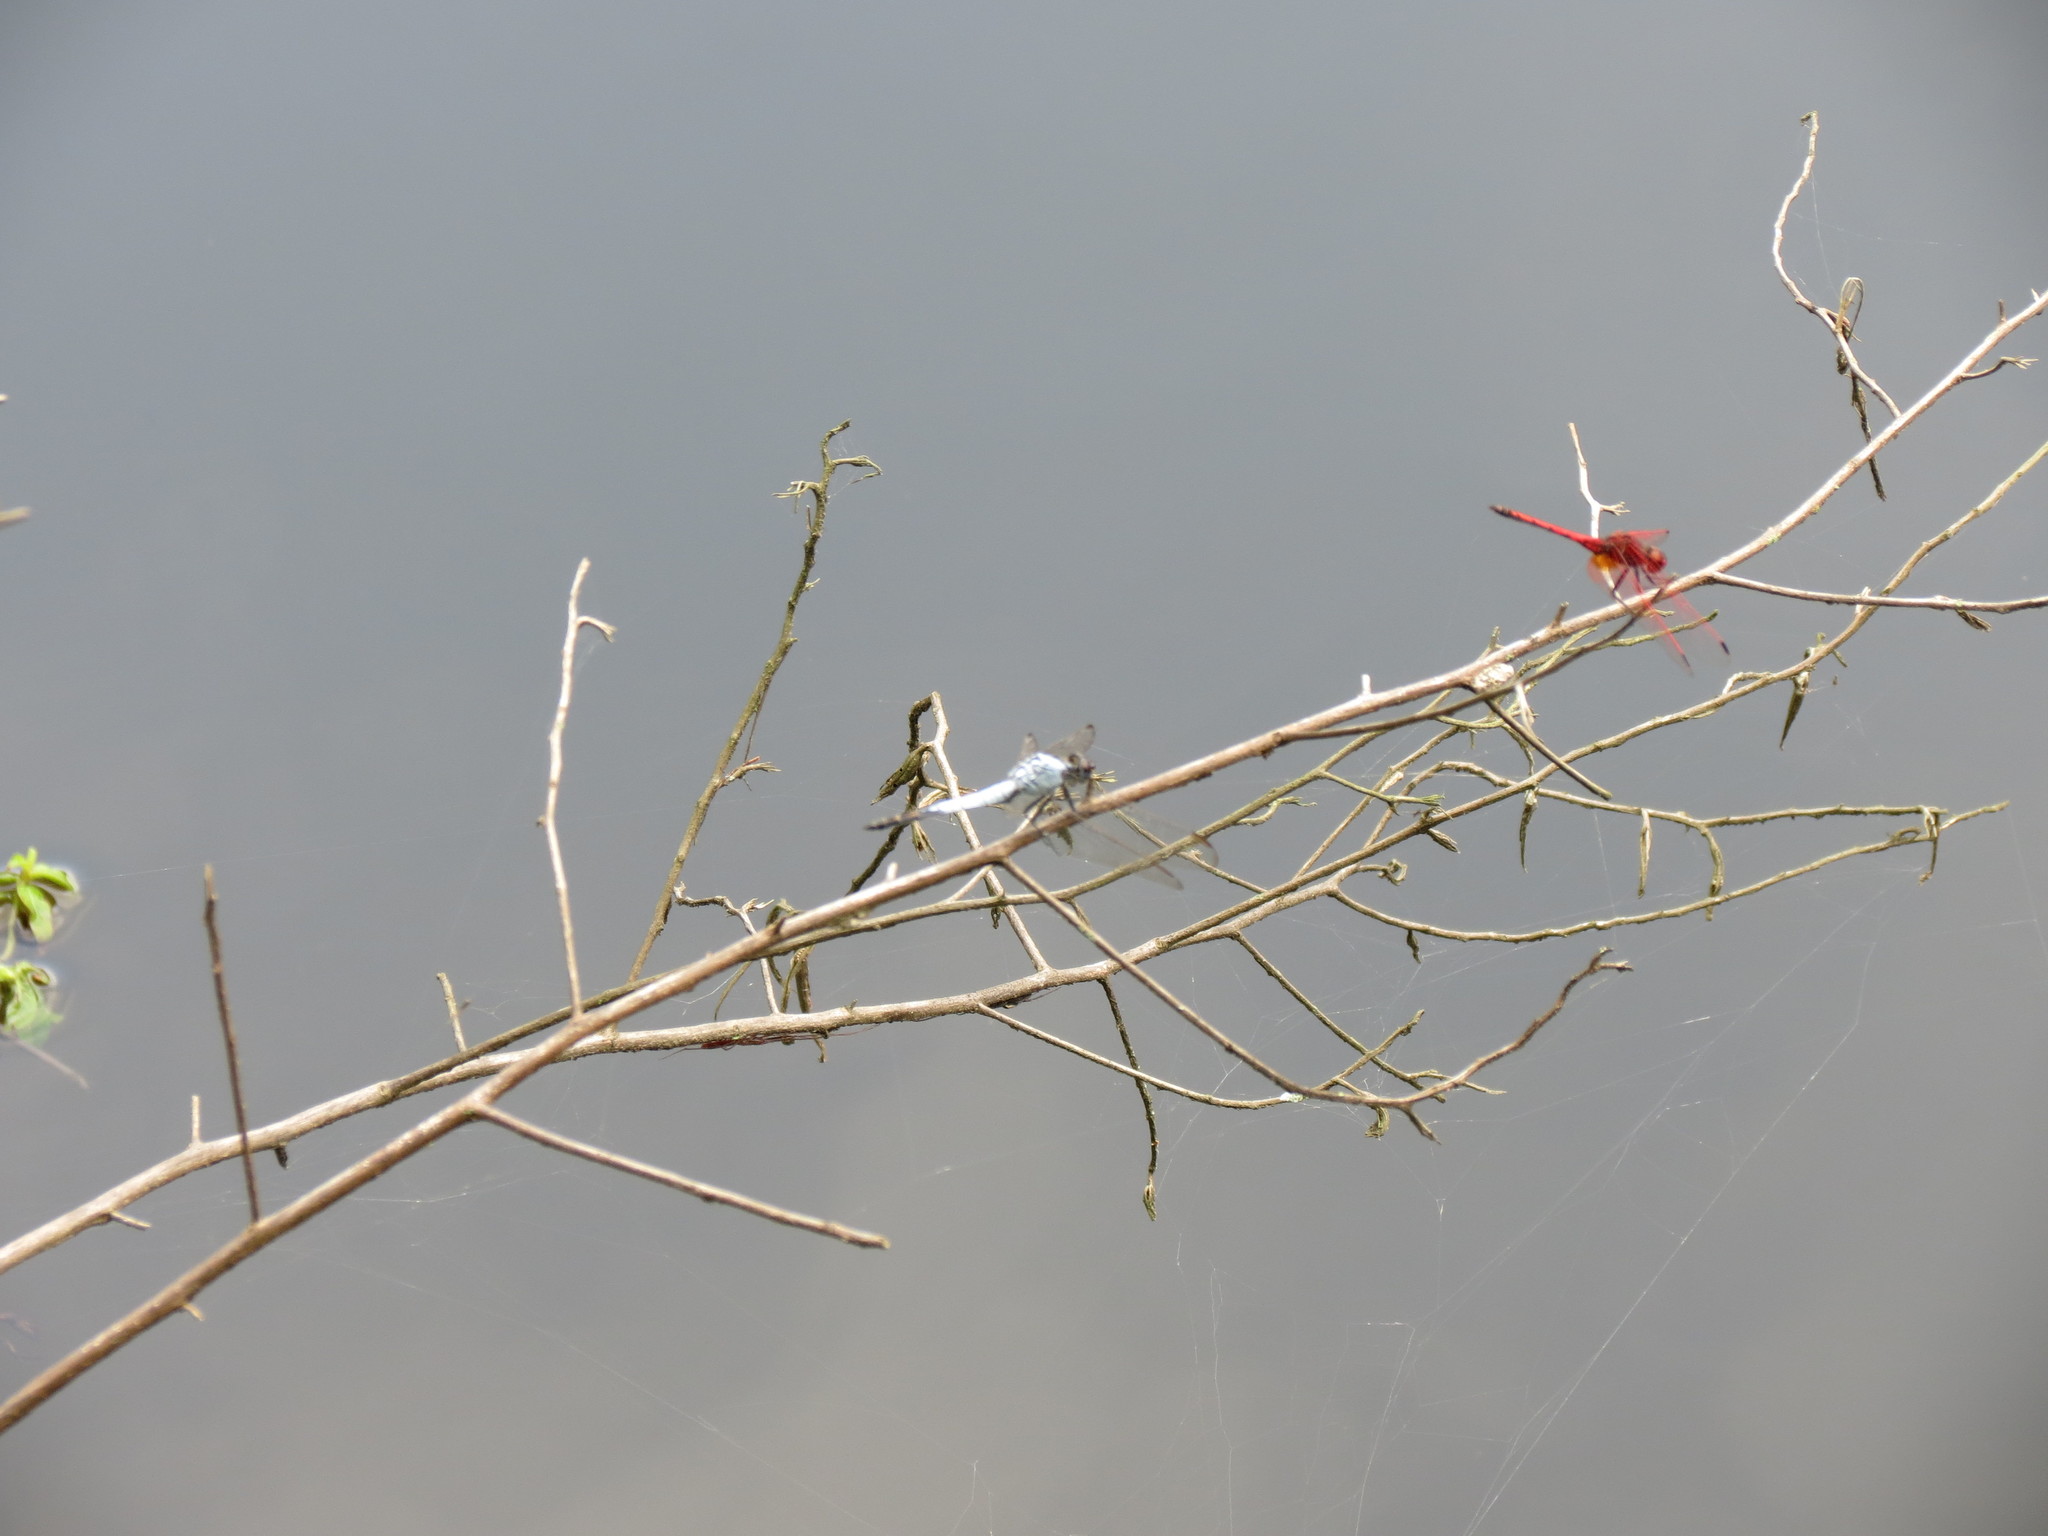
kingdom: Animalia
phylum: Arthropoda
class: Insecta
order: Odonata
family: Libellulidae
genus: Trithemis
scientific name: Trithemis arteriosa
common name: Red-veined dropwing
